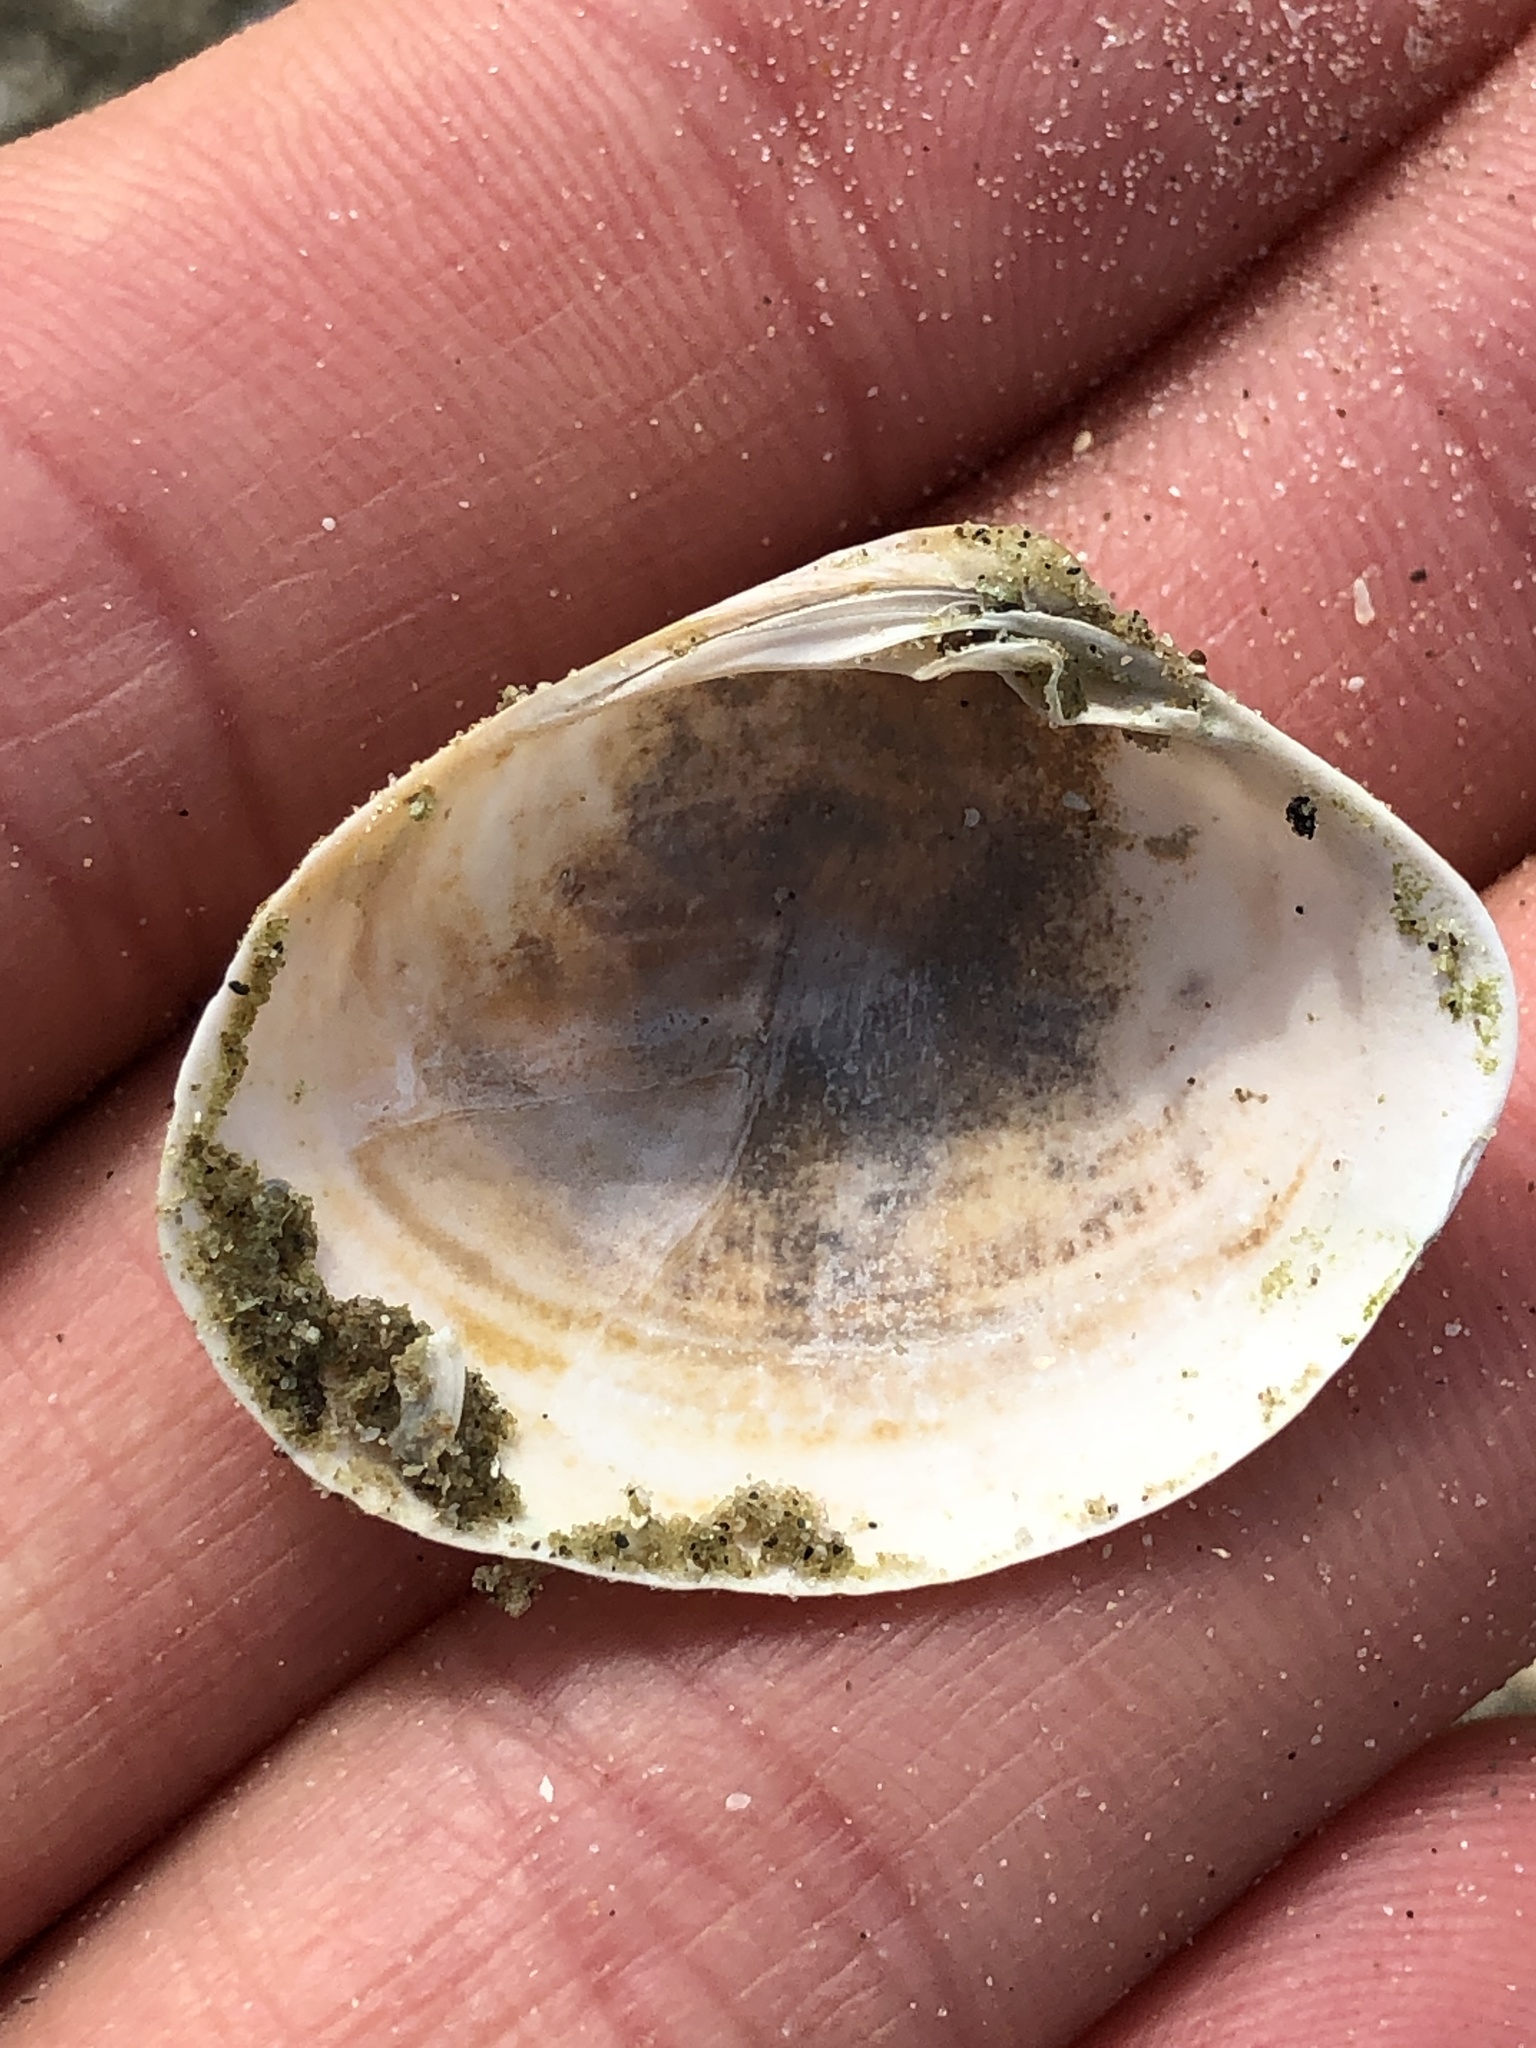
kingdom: Animalia
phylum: Mollusca
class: Bivalvia
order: Venerida
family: Veneridae
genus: Agriopoma
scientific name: Agriopoma texasianum
